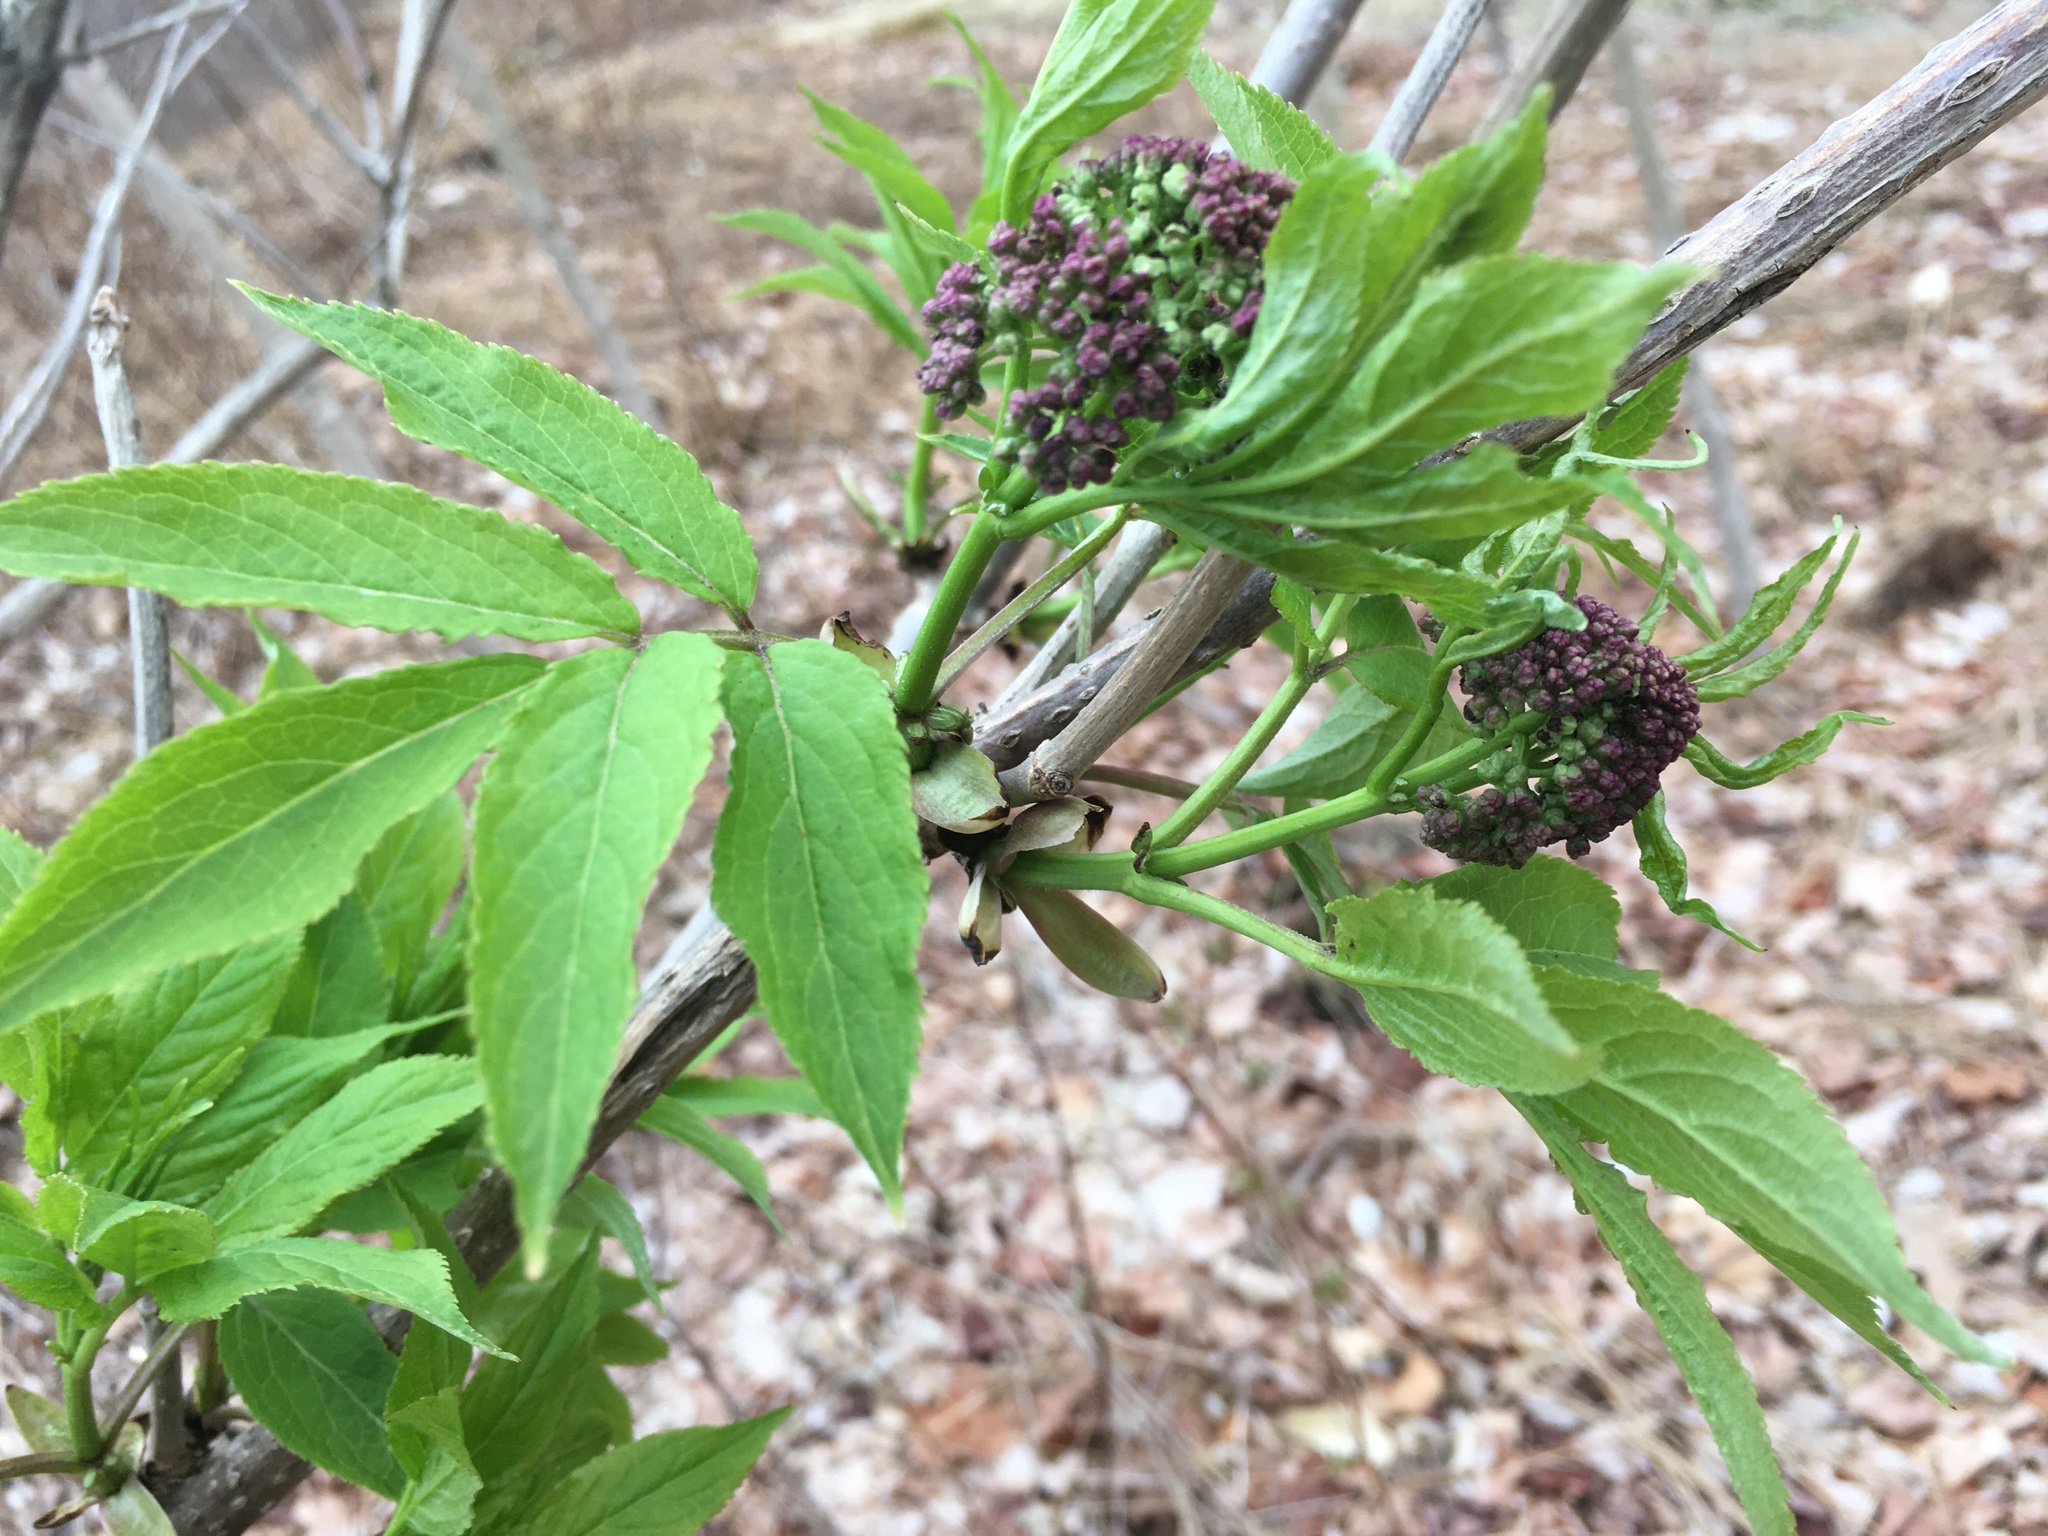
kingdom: Plantae
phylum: Tracheophyta
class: Magnoliopsida
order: Dipsacales
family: Viburnaceae
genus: Sambucus
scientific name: Sambucus racemosa
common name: Red-berried elder
